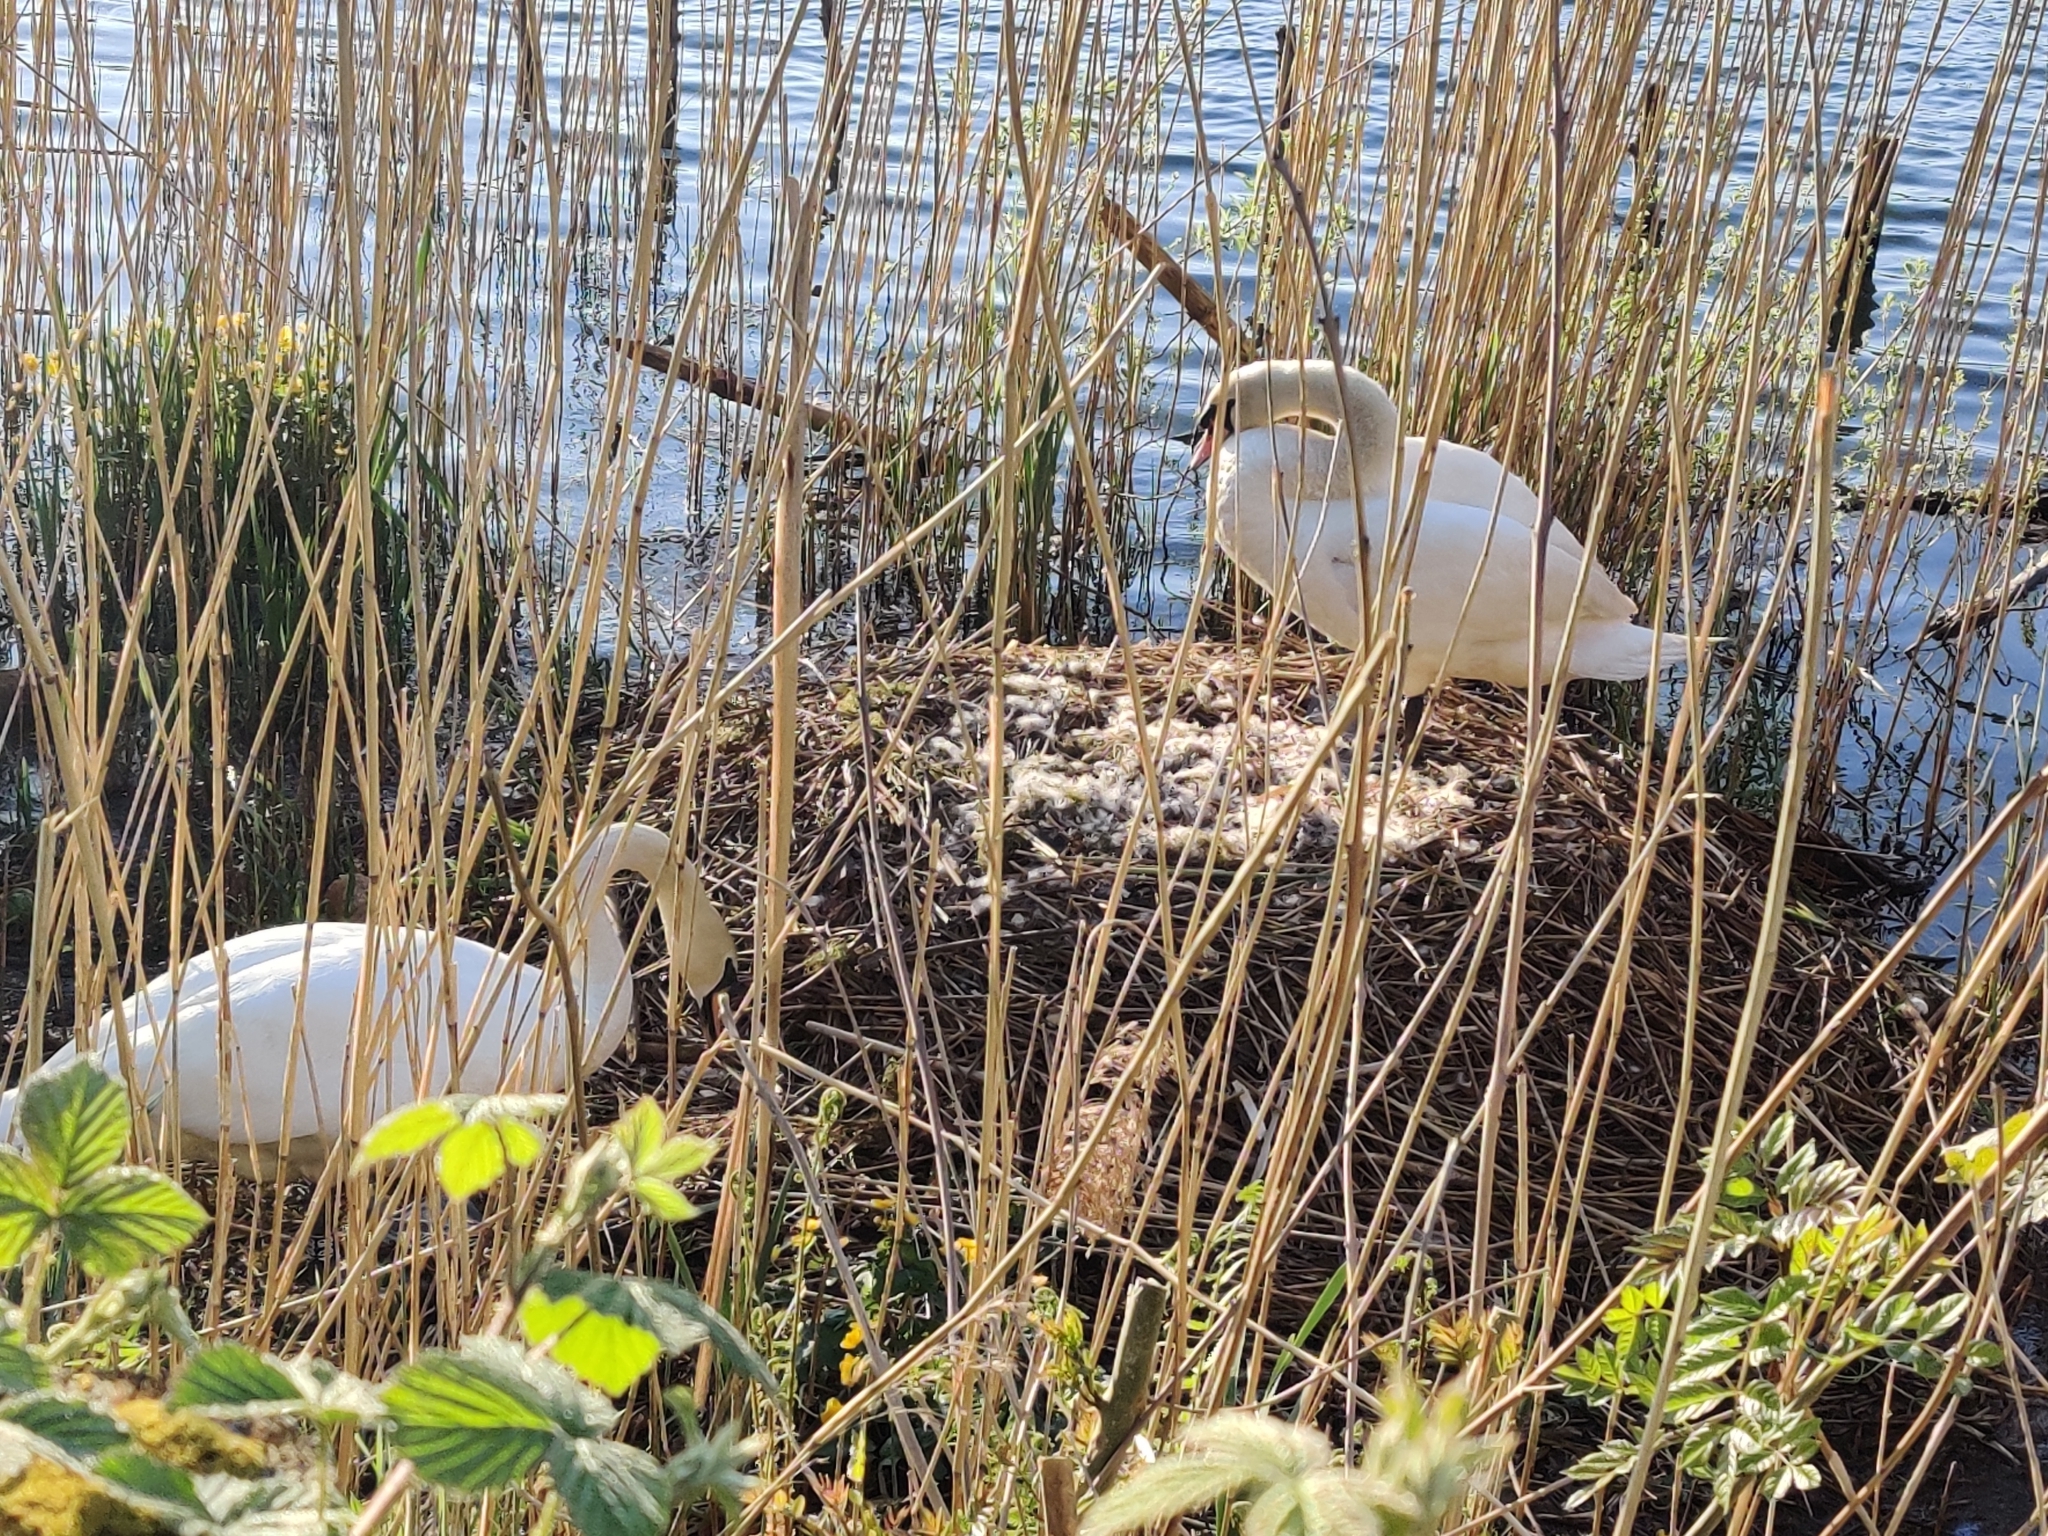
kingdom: Animalia
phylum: Chordata
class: Aves
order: Anseriformes
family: Anatidae
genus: Cygnus
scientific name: Cygnus olor
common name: Mute swan
